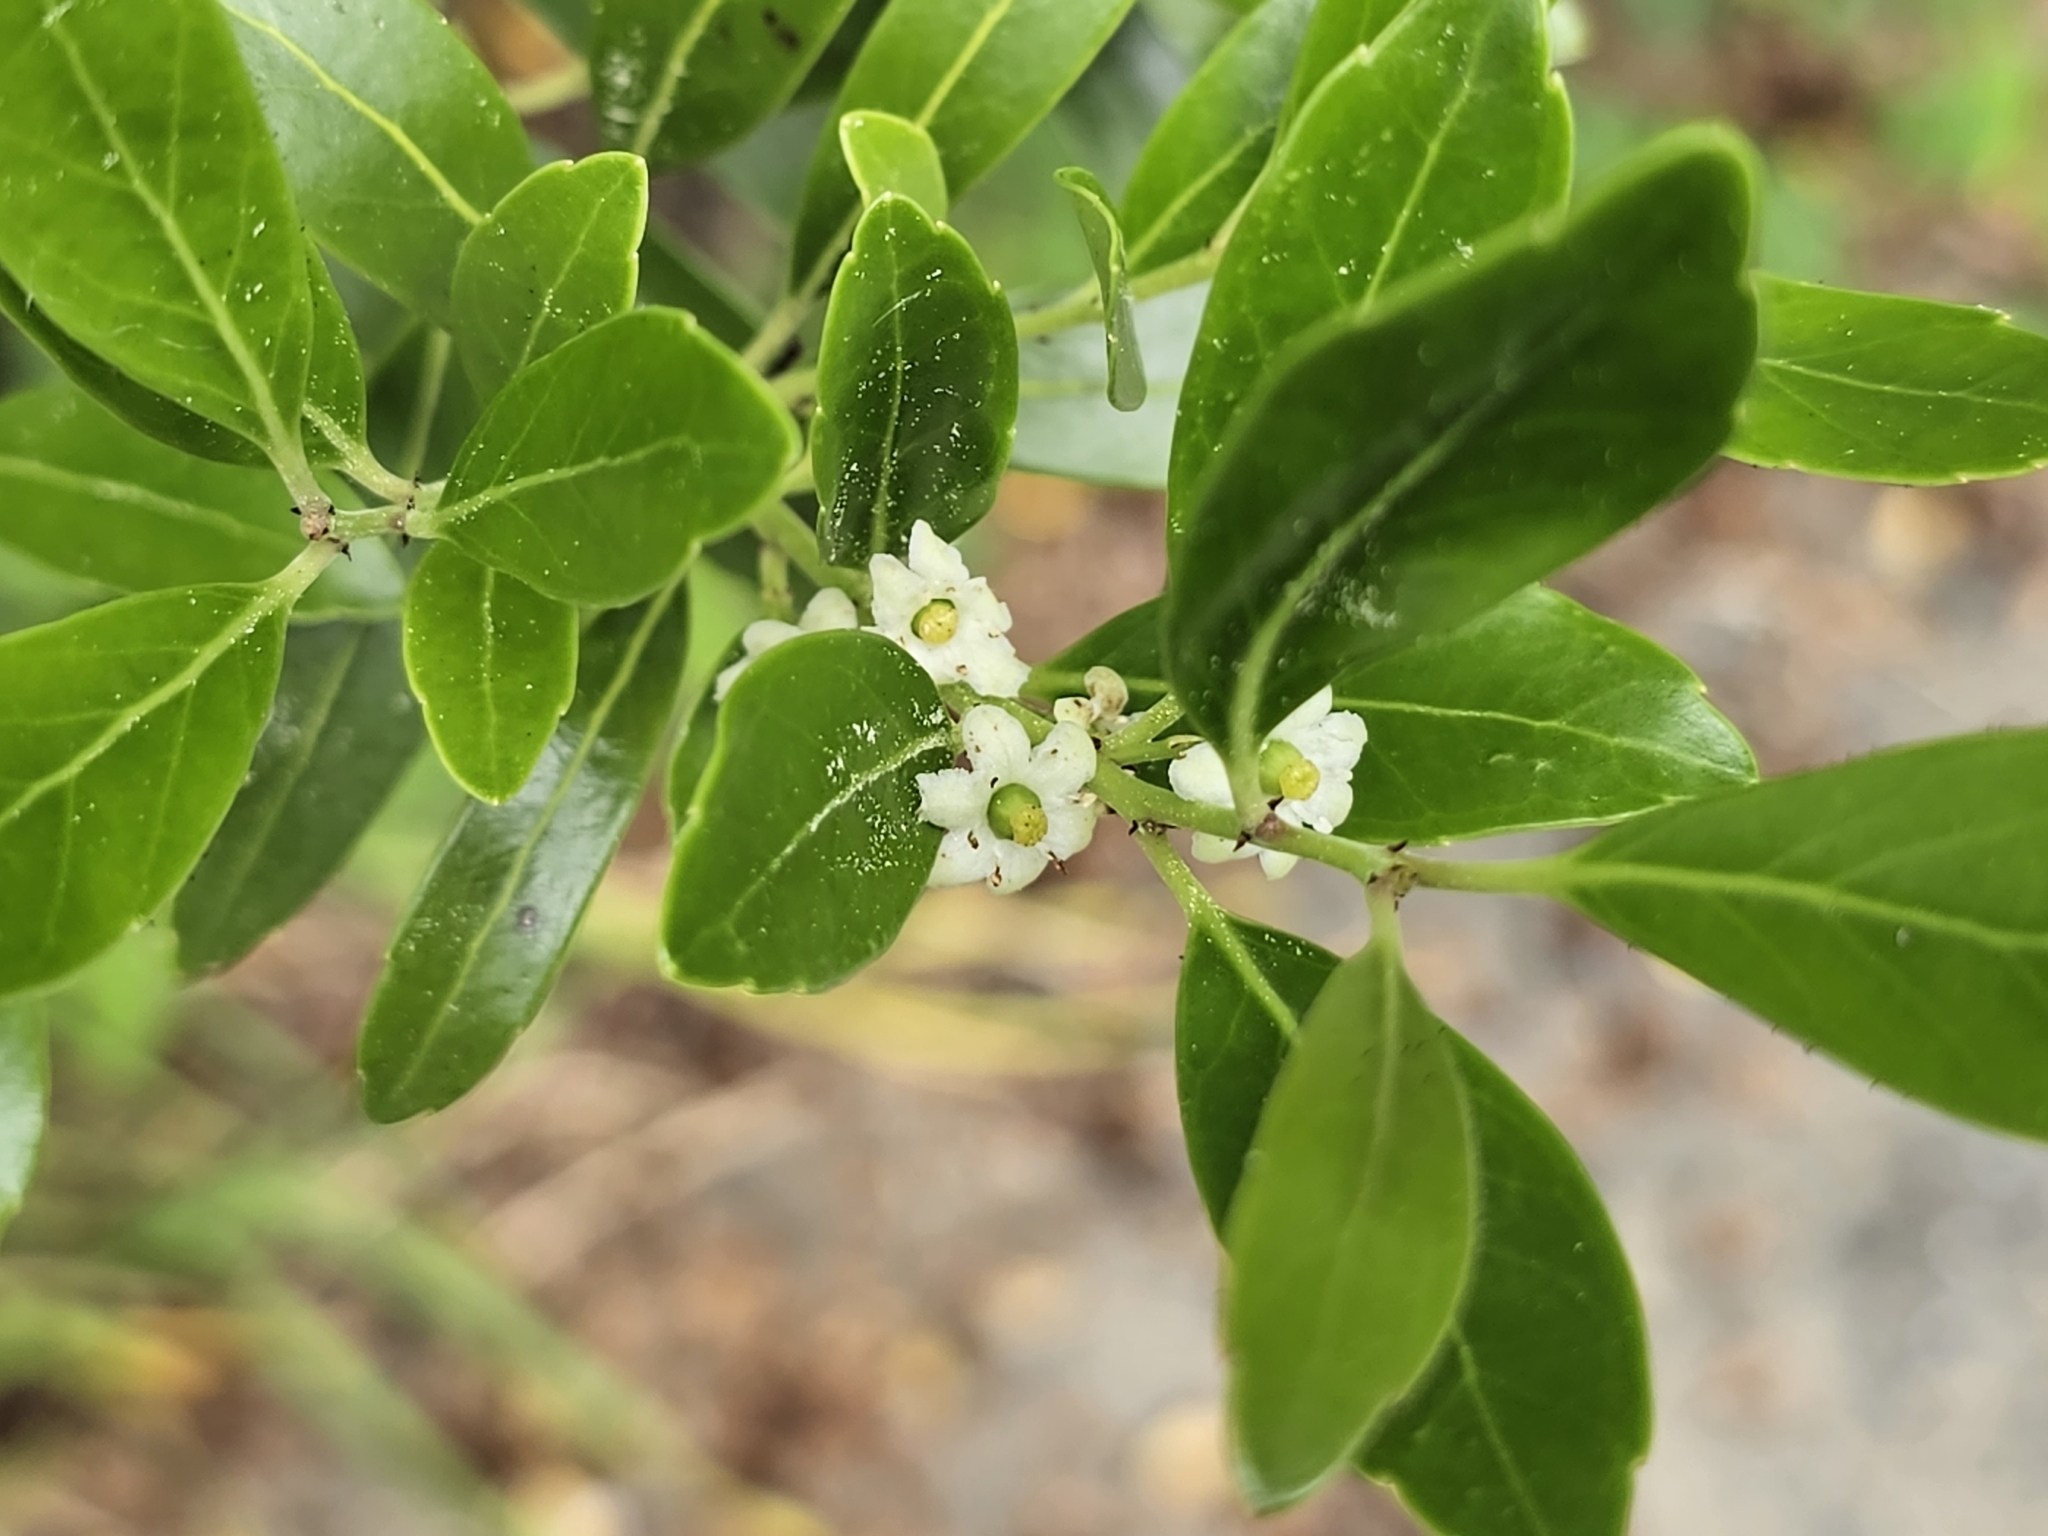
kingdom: Plantae
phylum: Tracheophyta
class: Magnoliopsida
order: Aquifoliales
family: Aquifoliaceae
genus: Ilex
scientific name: Ilex glabra
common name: Bitter gallberry
